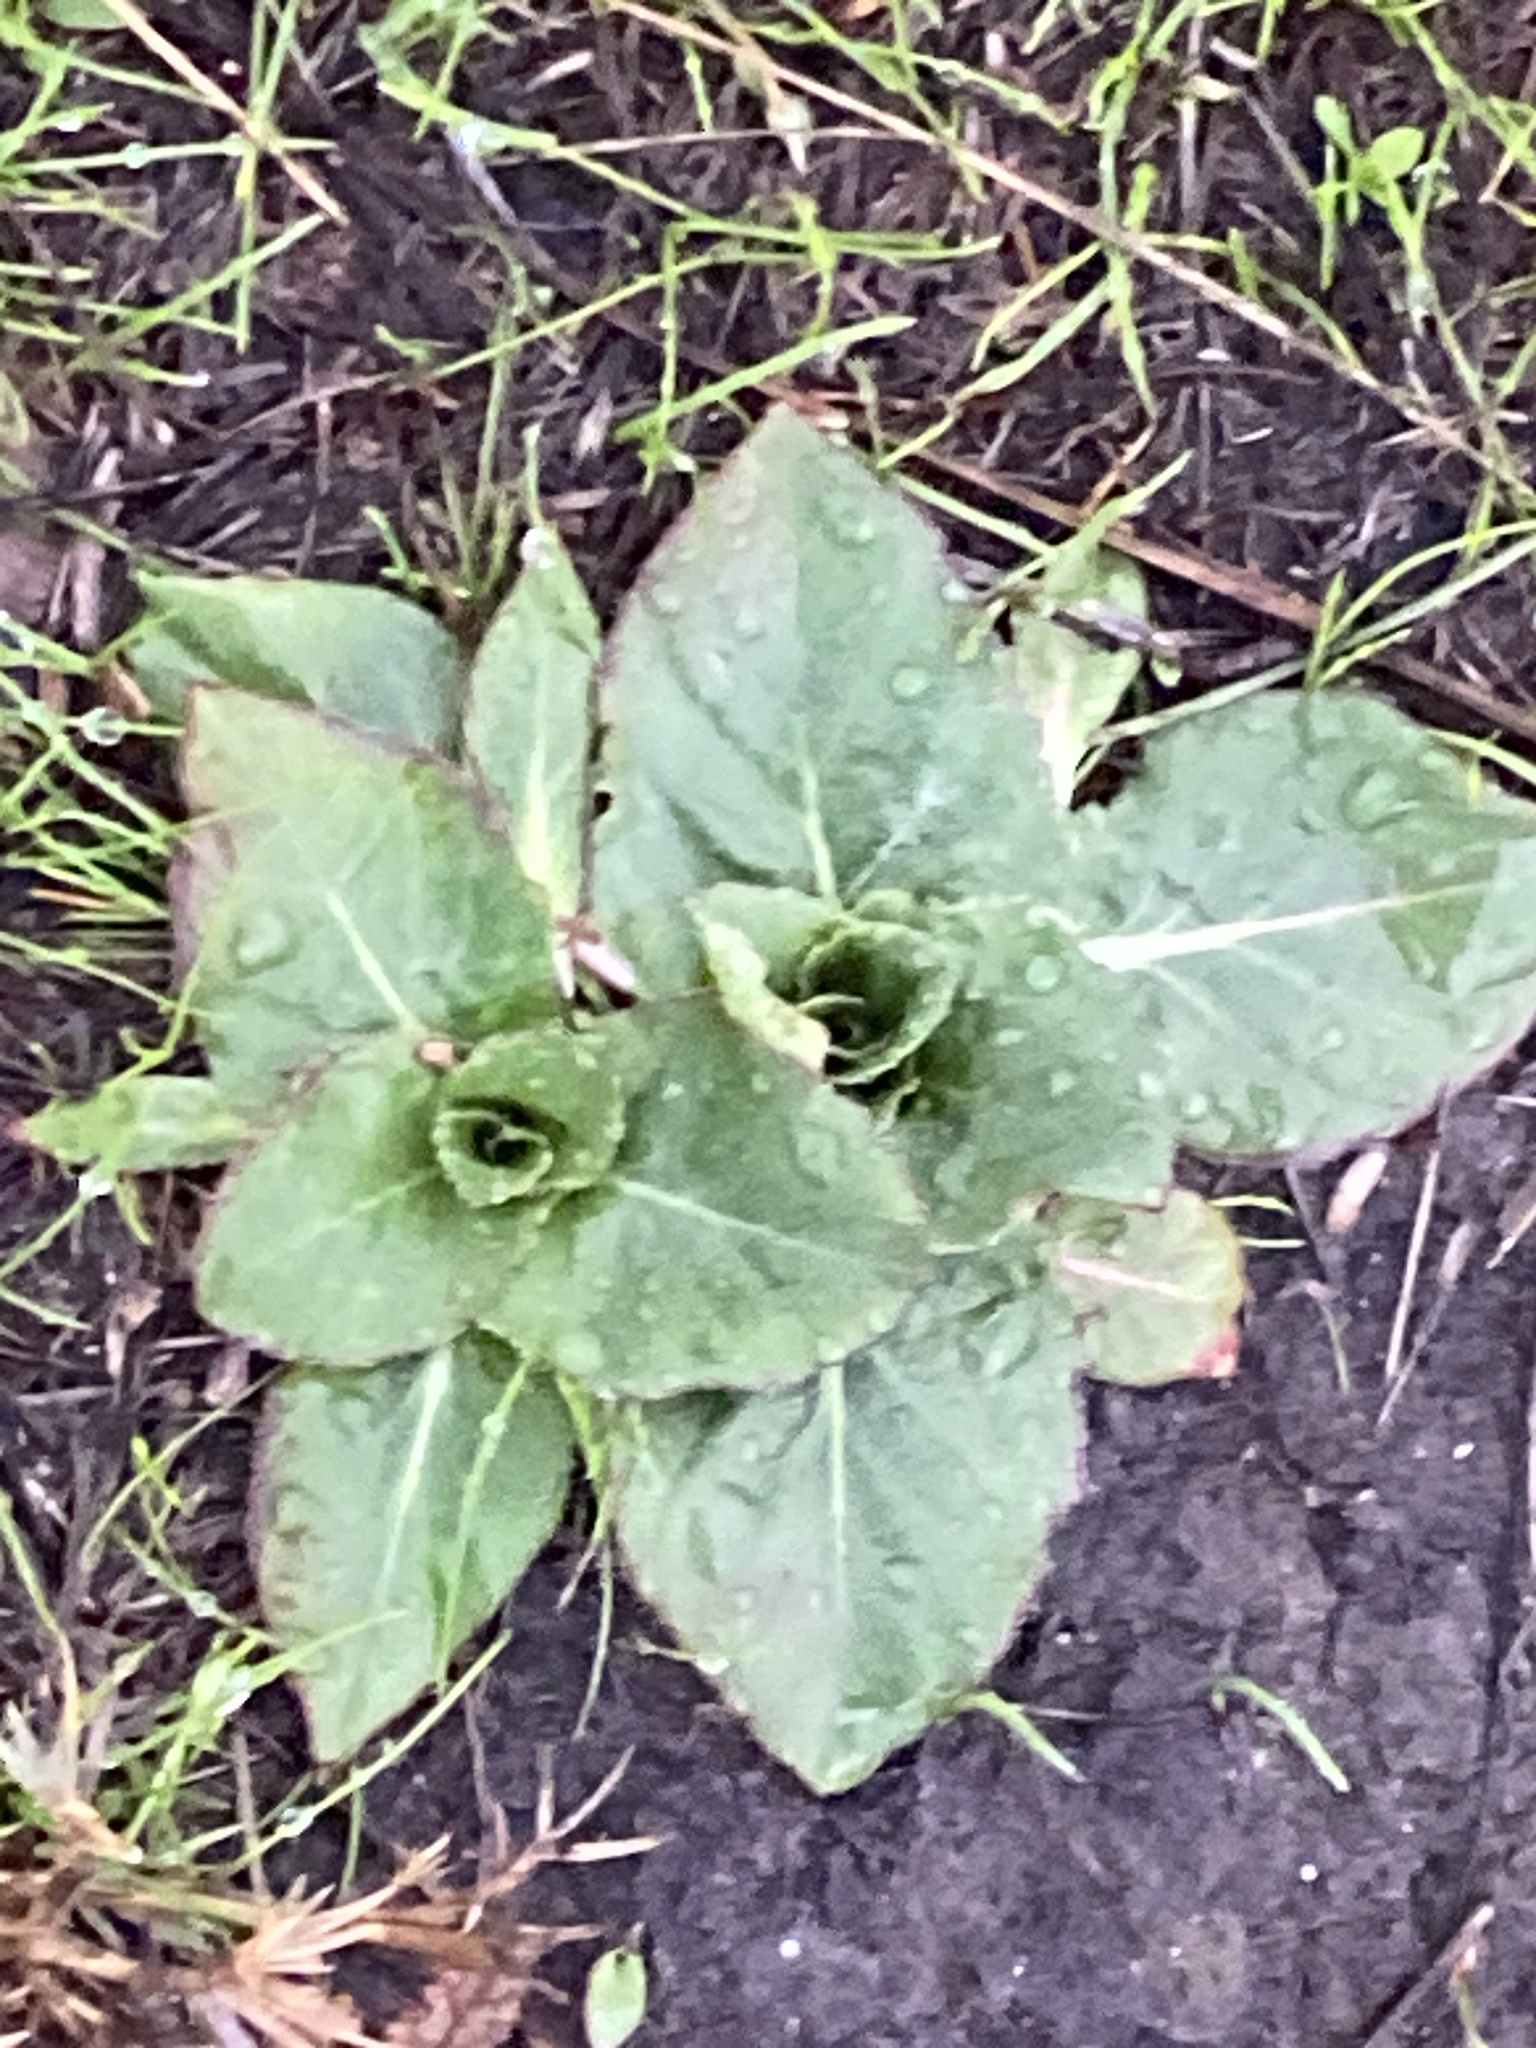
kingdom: Plantae
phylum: Tracheophyta
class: Magnoliopsida
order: Myrtales
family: Onagraceae
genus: Taraxia
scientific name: Taraxia ovata
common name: Goldeneggs
